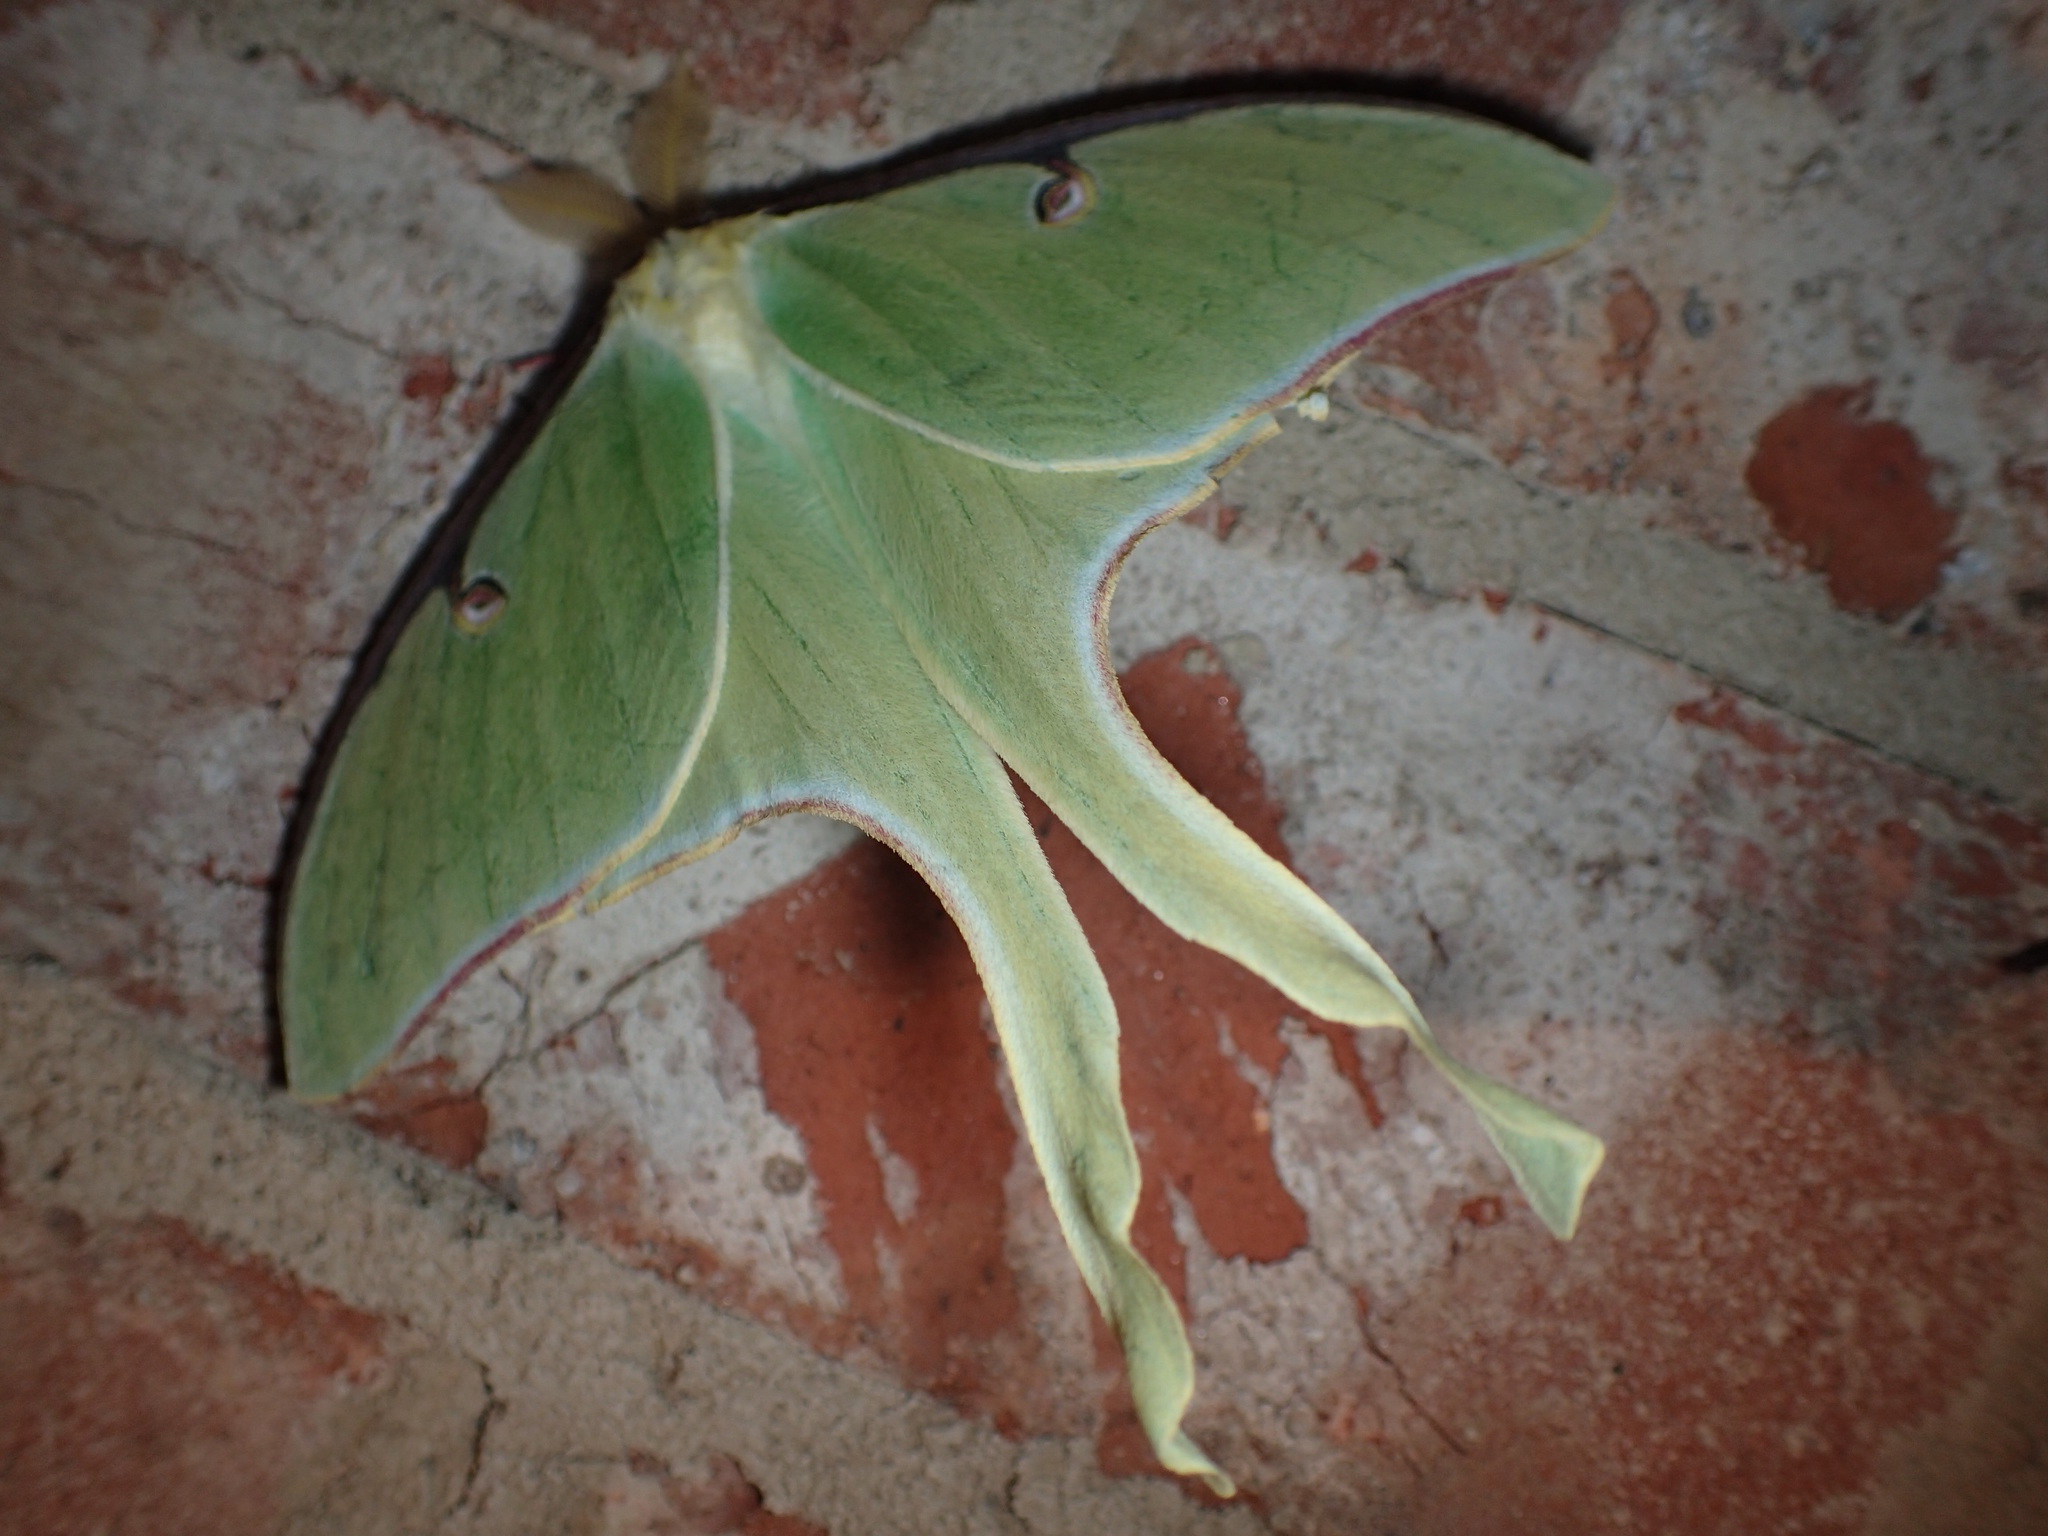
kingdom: Animalia
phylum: Arthropoda
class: Insecta
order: Lepidoptera
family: Saturniidae
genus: Actias
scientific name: Actias luna
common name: Luna moth
